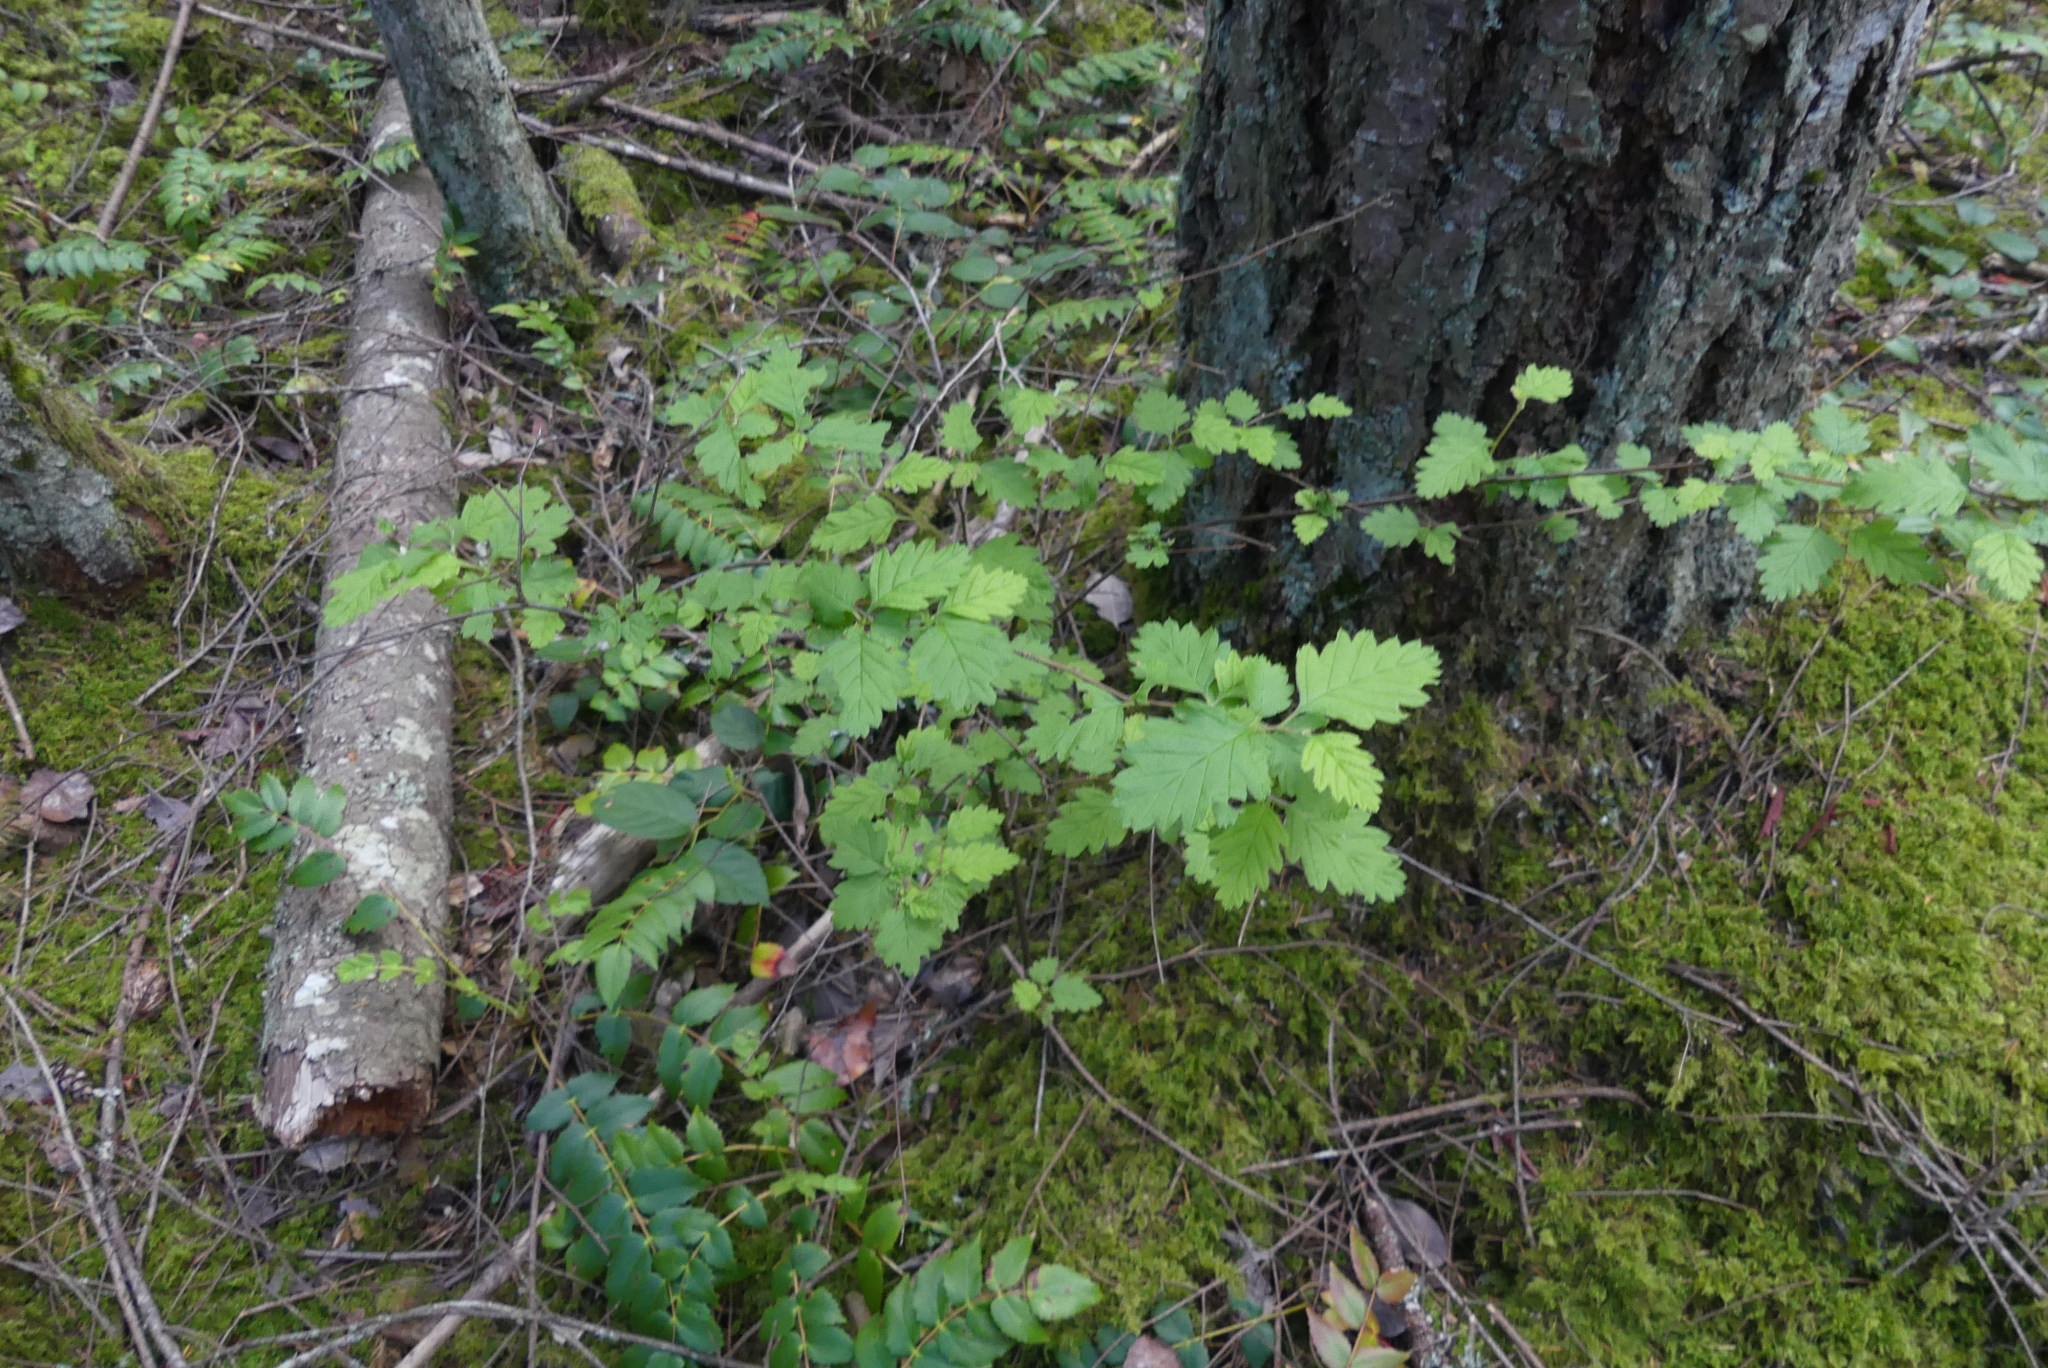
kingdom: Plantae
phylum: Tracheophyta
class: Magnoliopsida
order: Rosales
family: Rosaceae
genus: Holodiscus
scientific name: Holodiscus discolor
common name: Oceanspray
